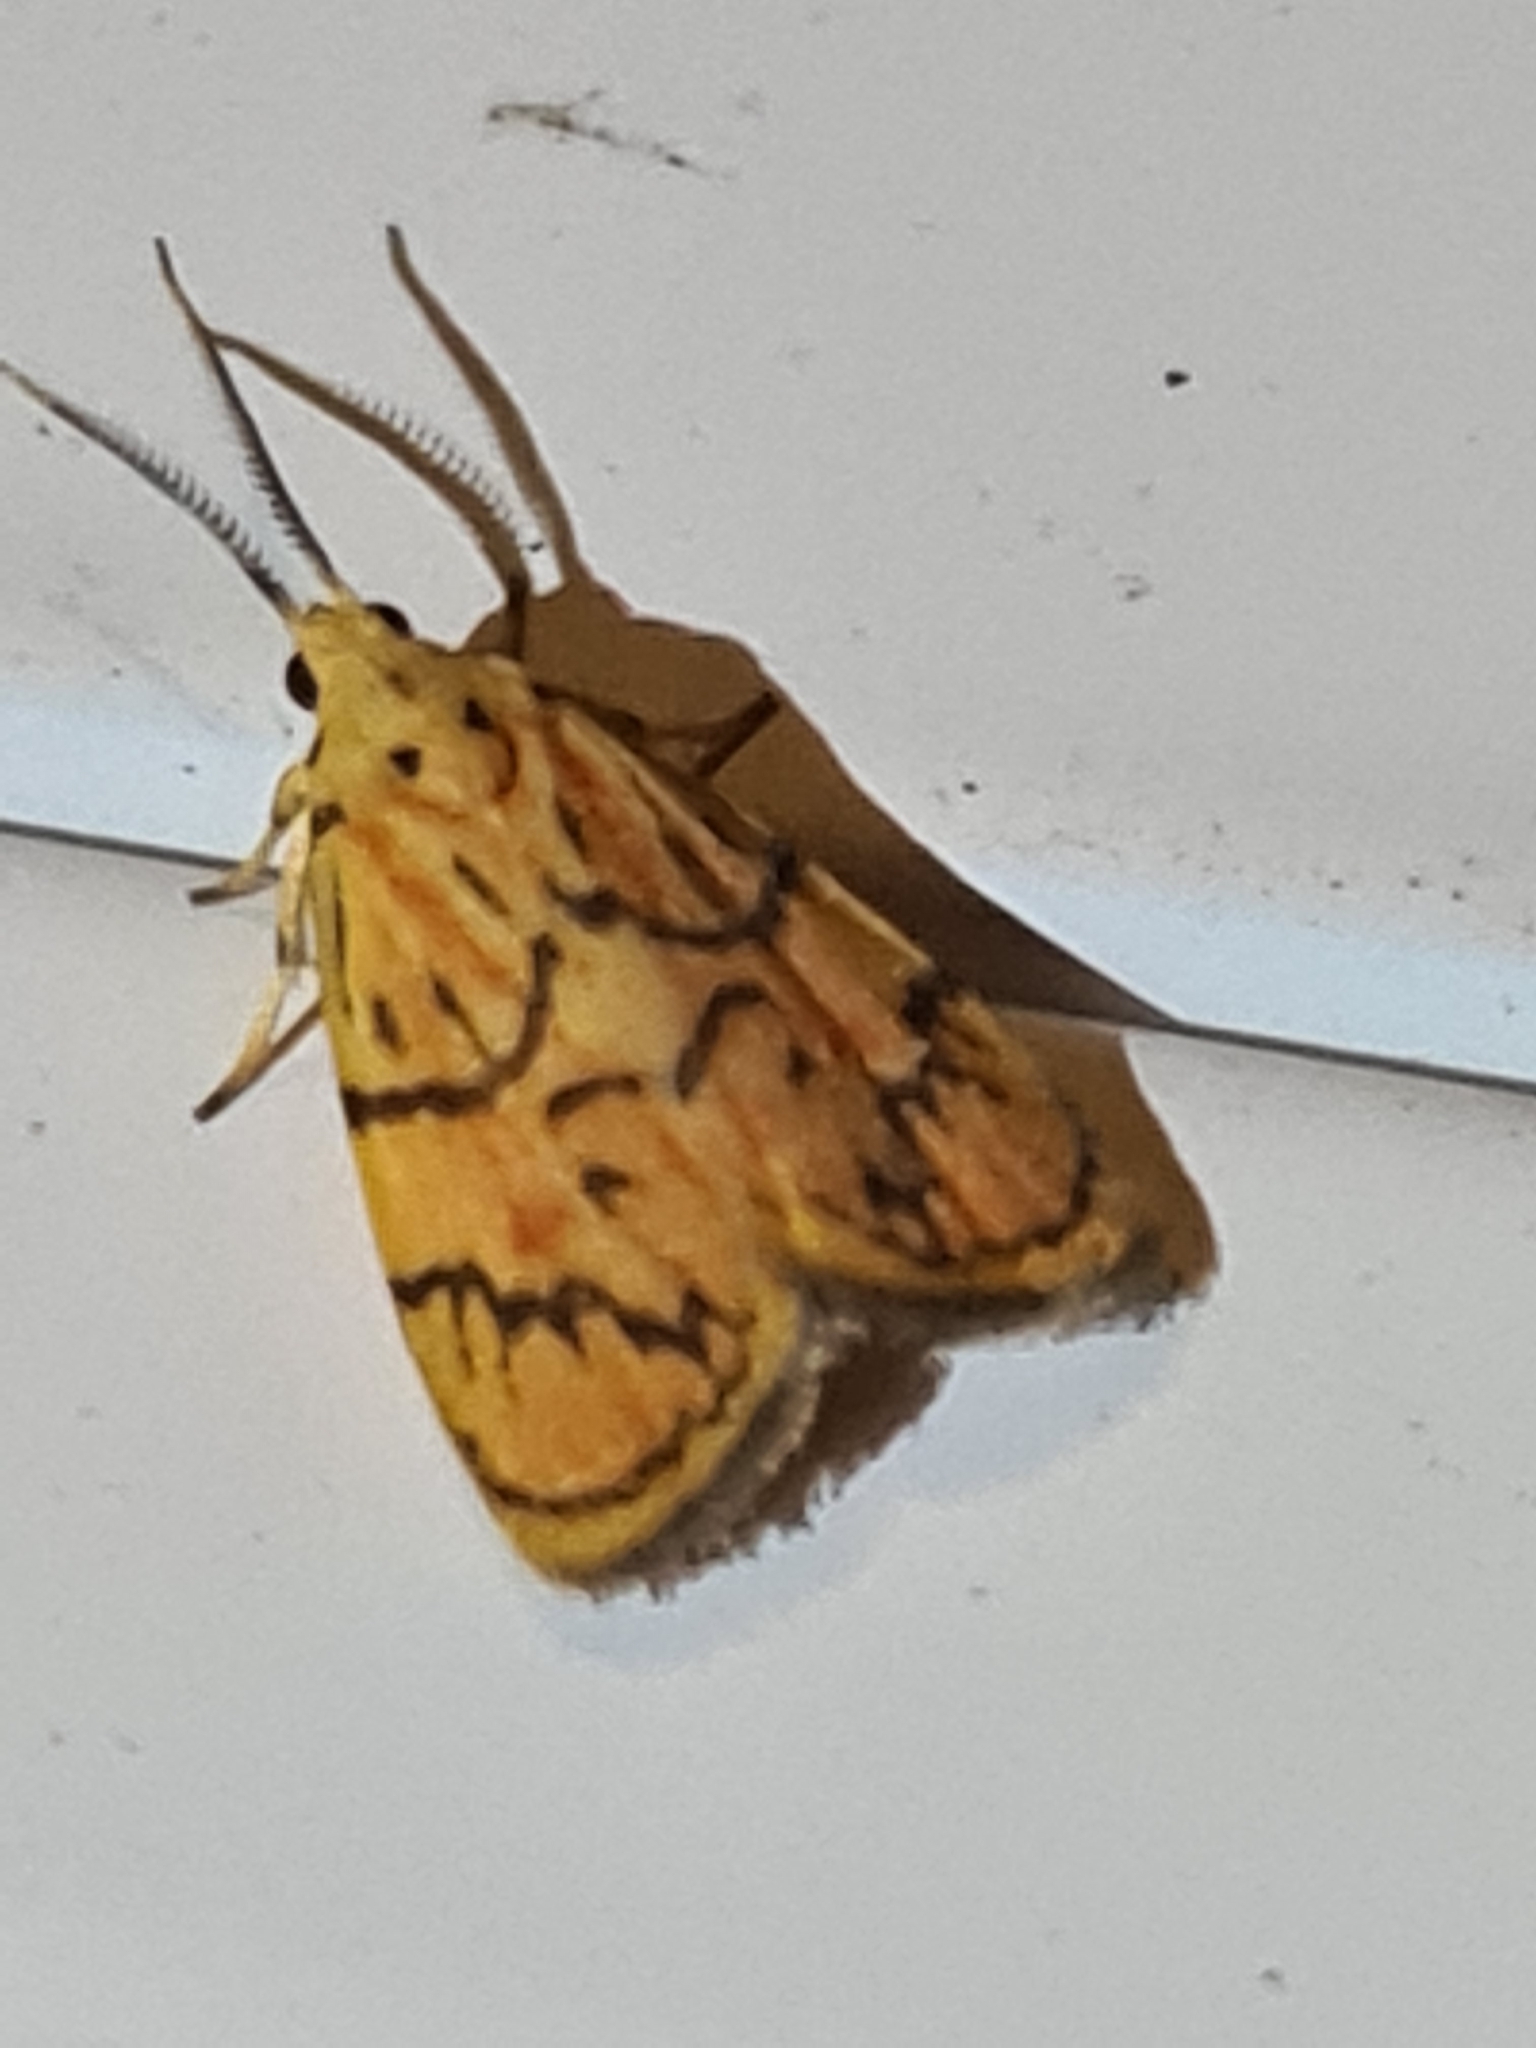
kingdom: Animalia
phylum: Arthropoda
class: Insecta
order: Lepidoptera
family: Erebidae
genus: Prepiella
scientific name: Prepiella radicans
